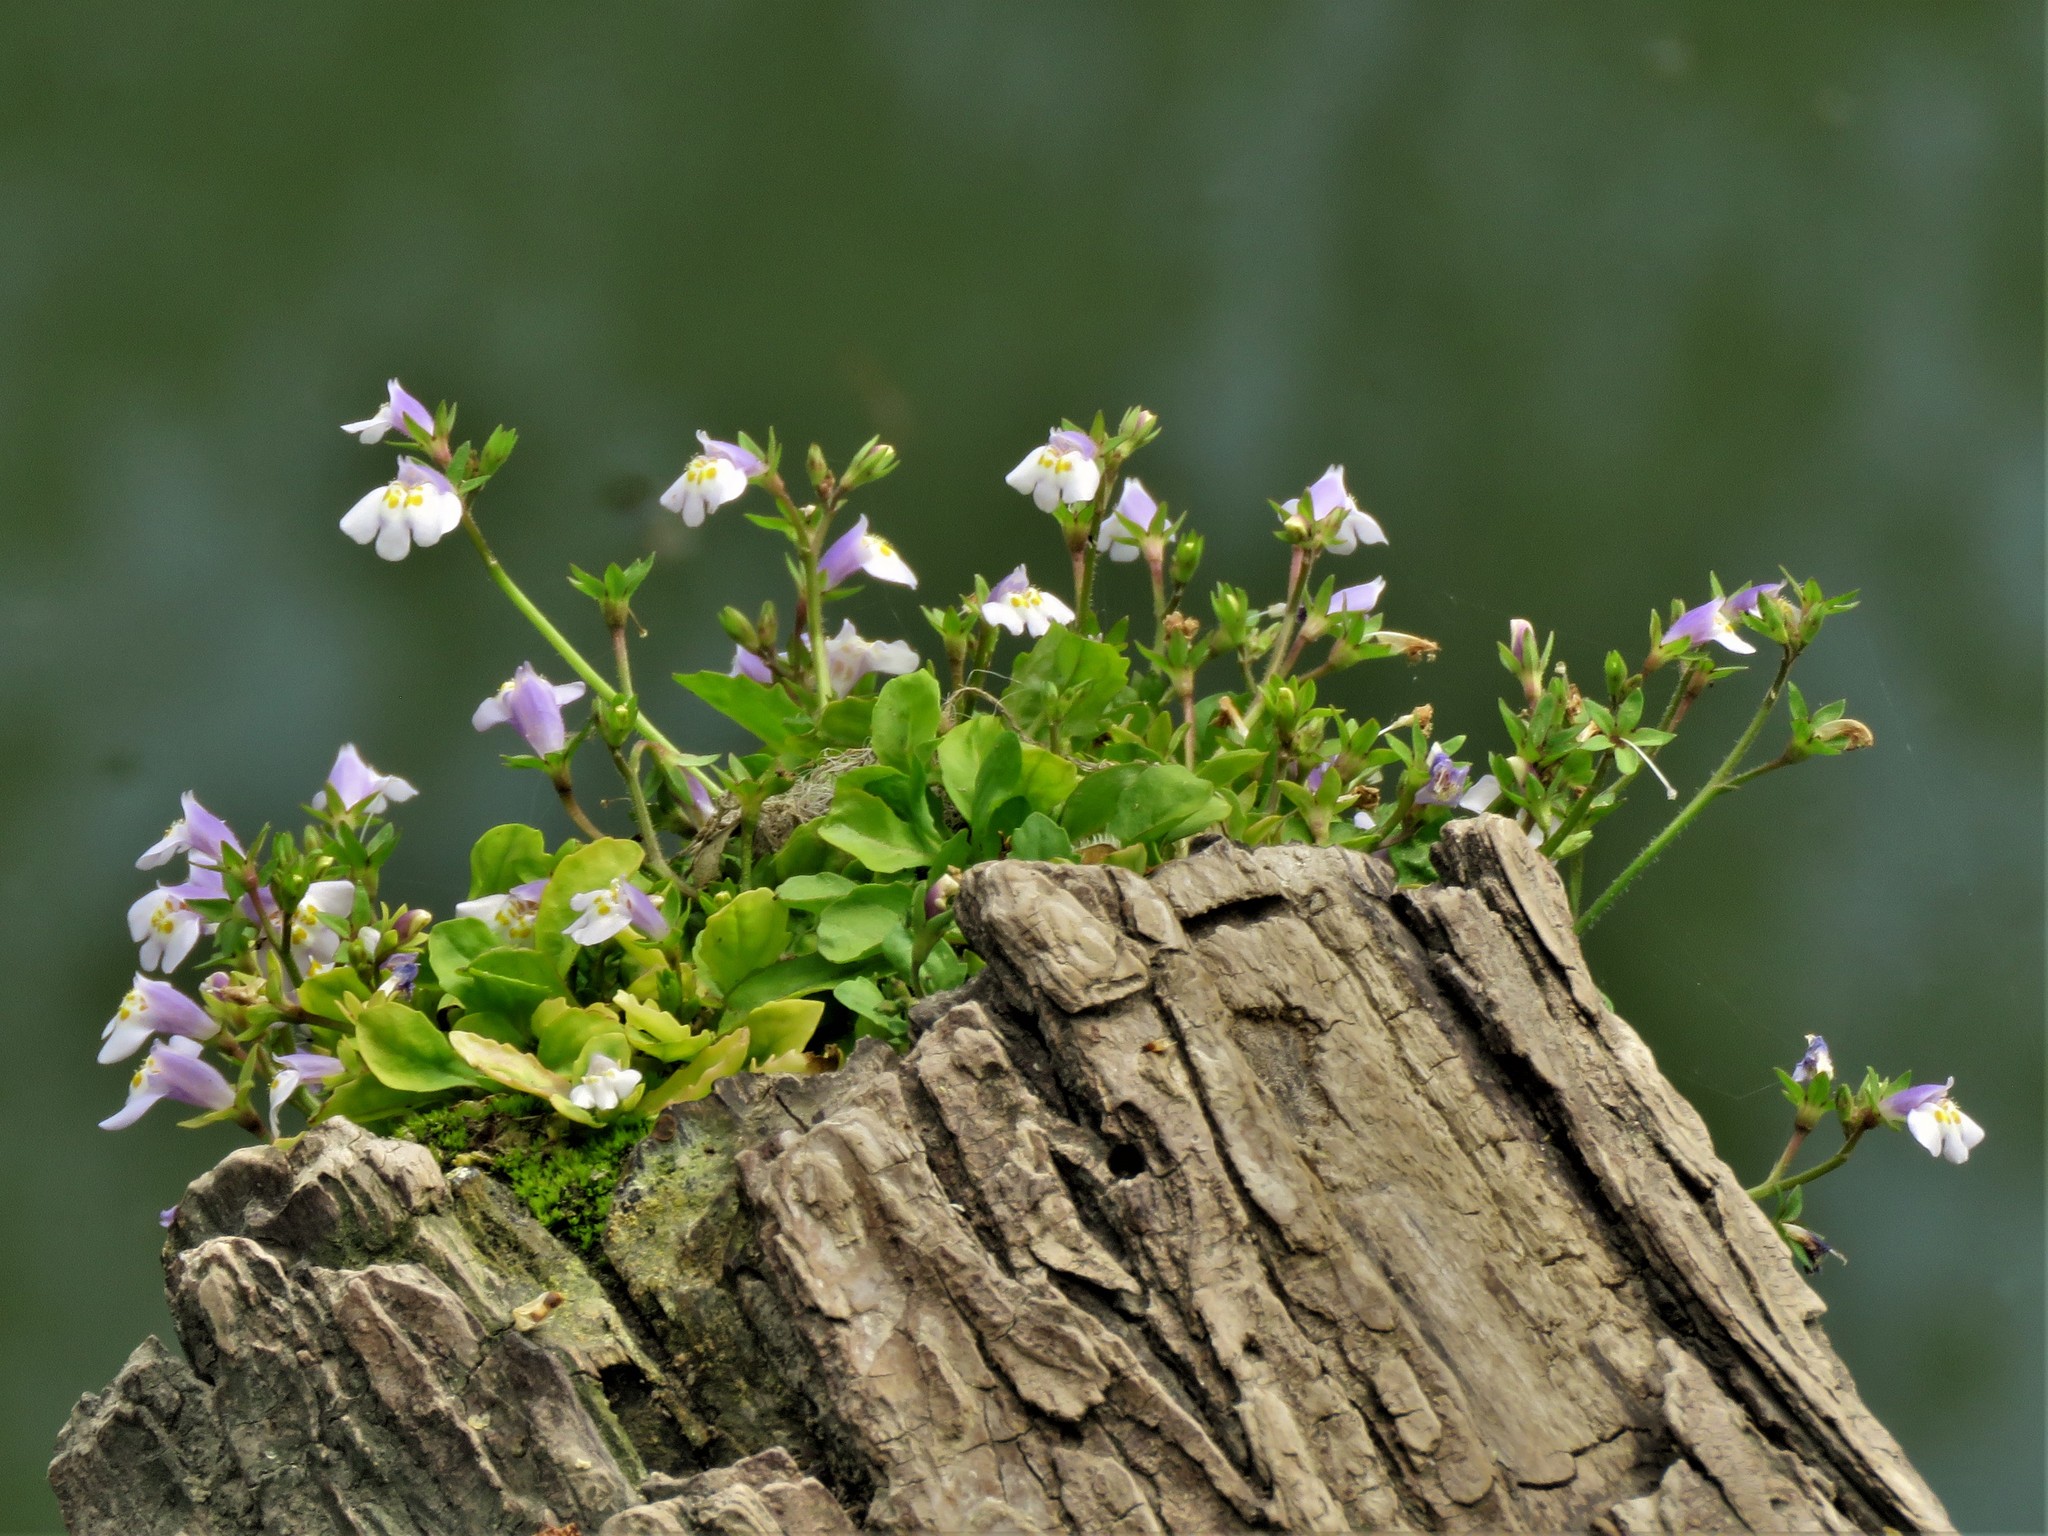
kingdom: Plantae
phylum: Tracheophyta
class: Magnoliopsida
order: Lamiales
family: Mazaceae
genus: Mazus
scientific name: Mazus pumilus
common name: Japanese mazus
